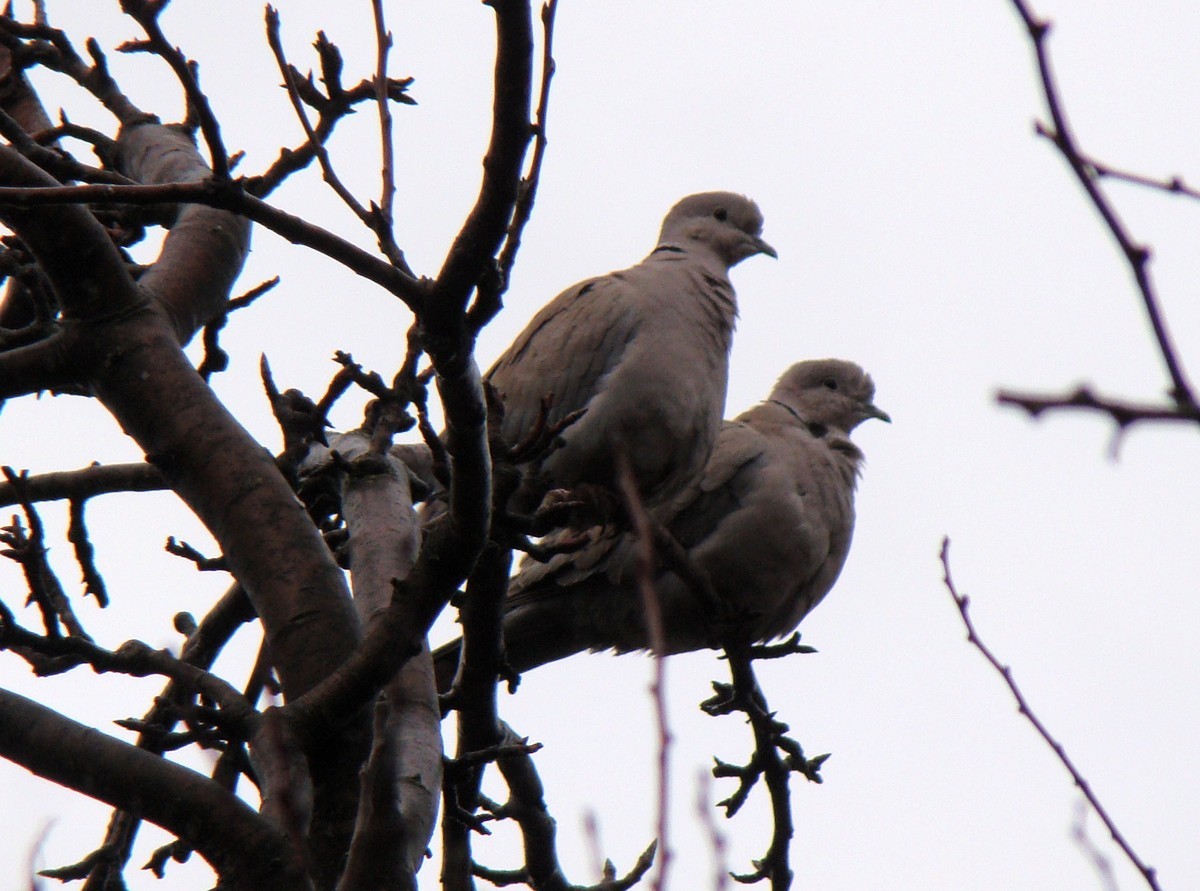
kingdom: Animalia
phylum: Chordata
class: Aves
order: Columbiformes
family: Columbidae
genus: Streptopelia
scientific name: Streptopelia decaocto
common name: Eurasian collared dove
